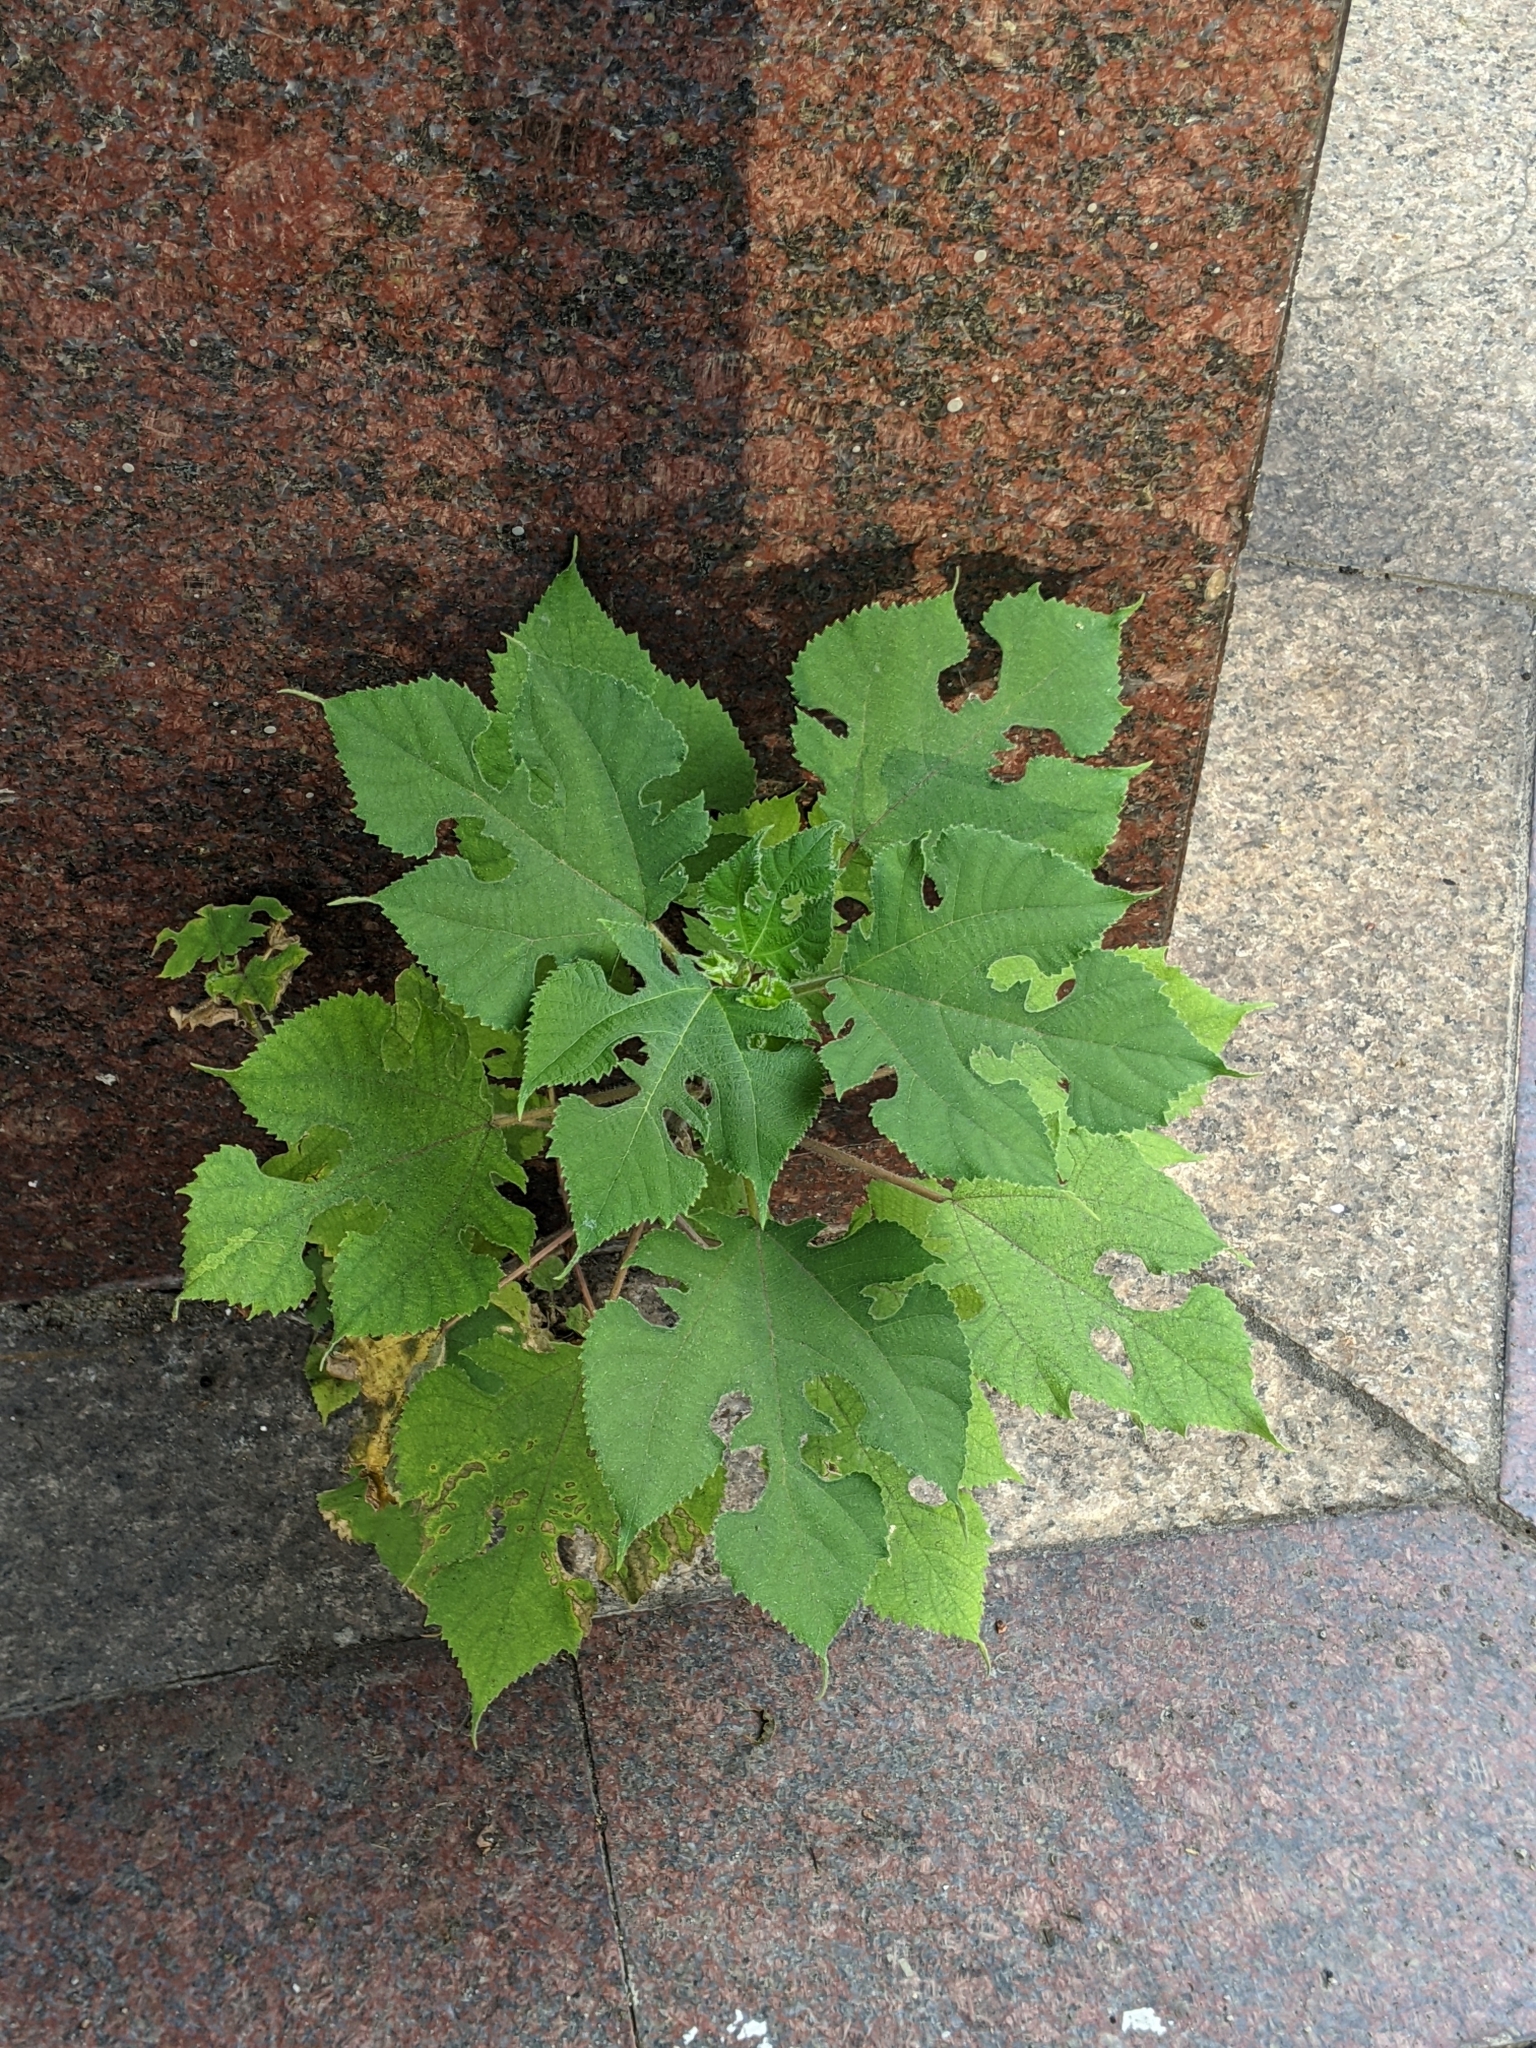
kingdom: Plantae
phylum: Tracheophyta
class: Magnoliopsida
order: Rosales
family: Moraceae
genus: Broussonetia
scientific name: Broussonetia papyrifera
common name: Paper mulberry
